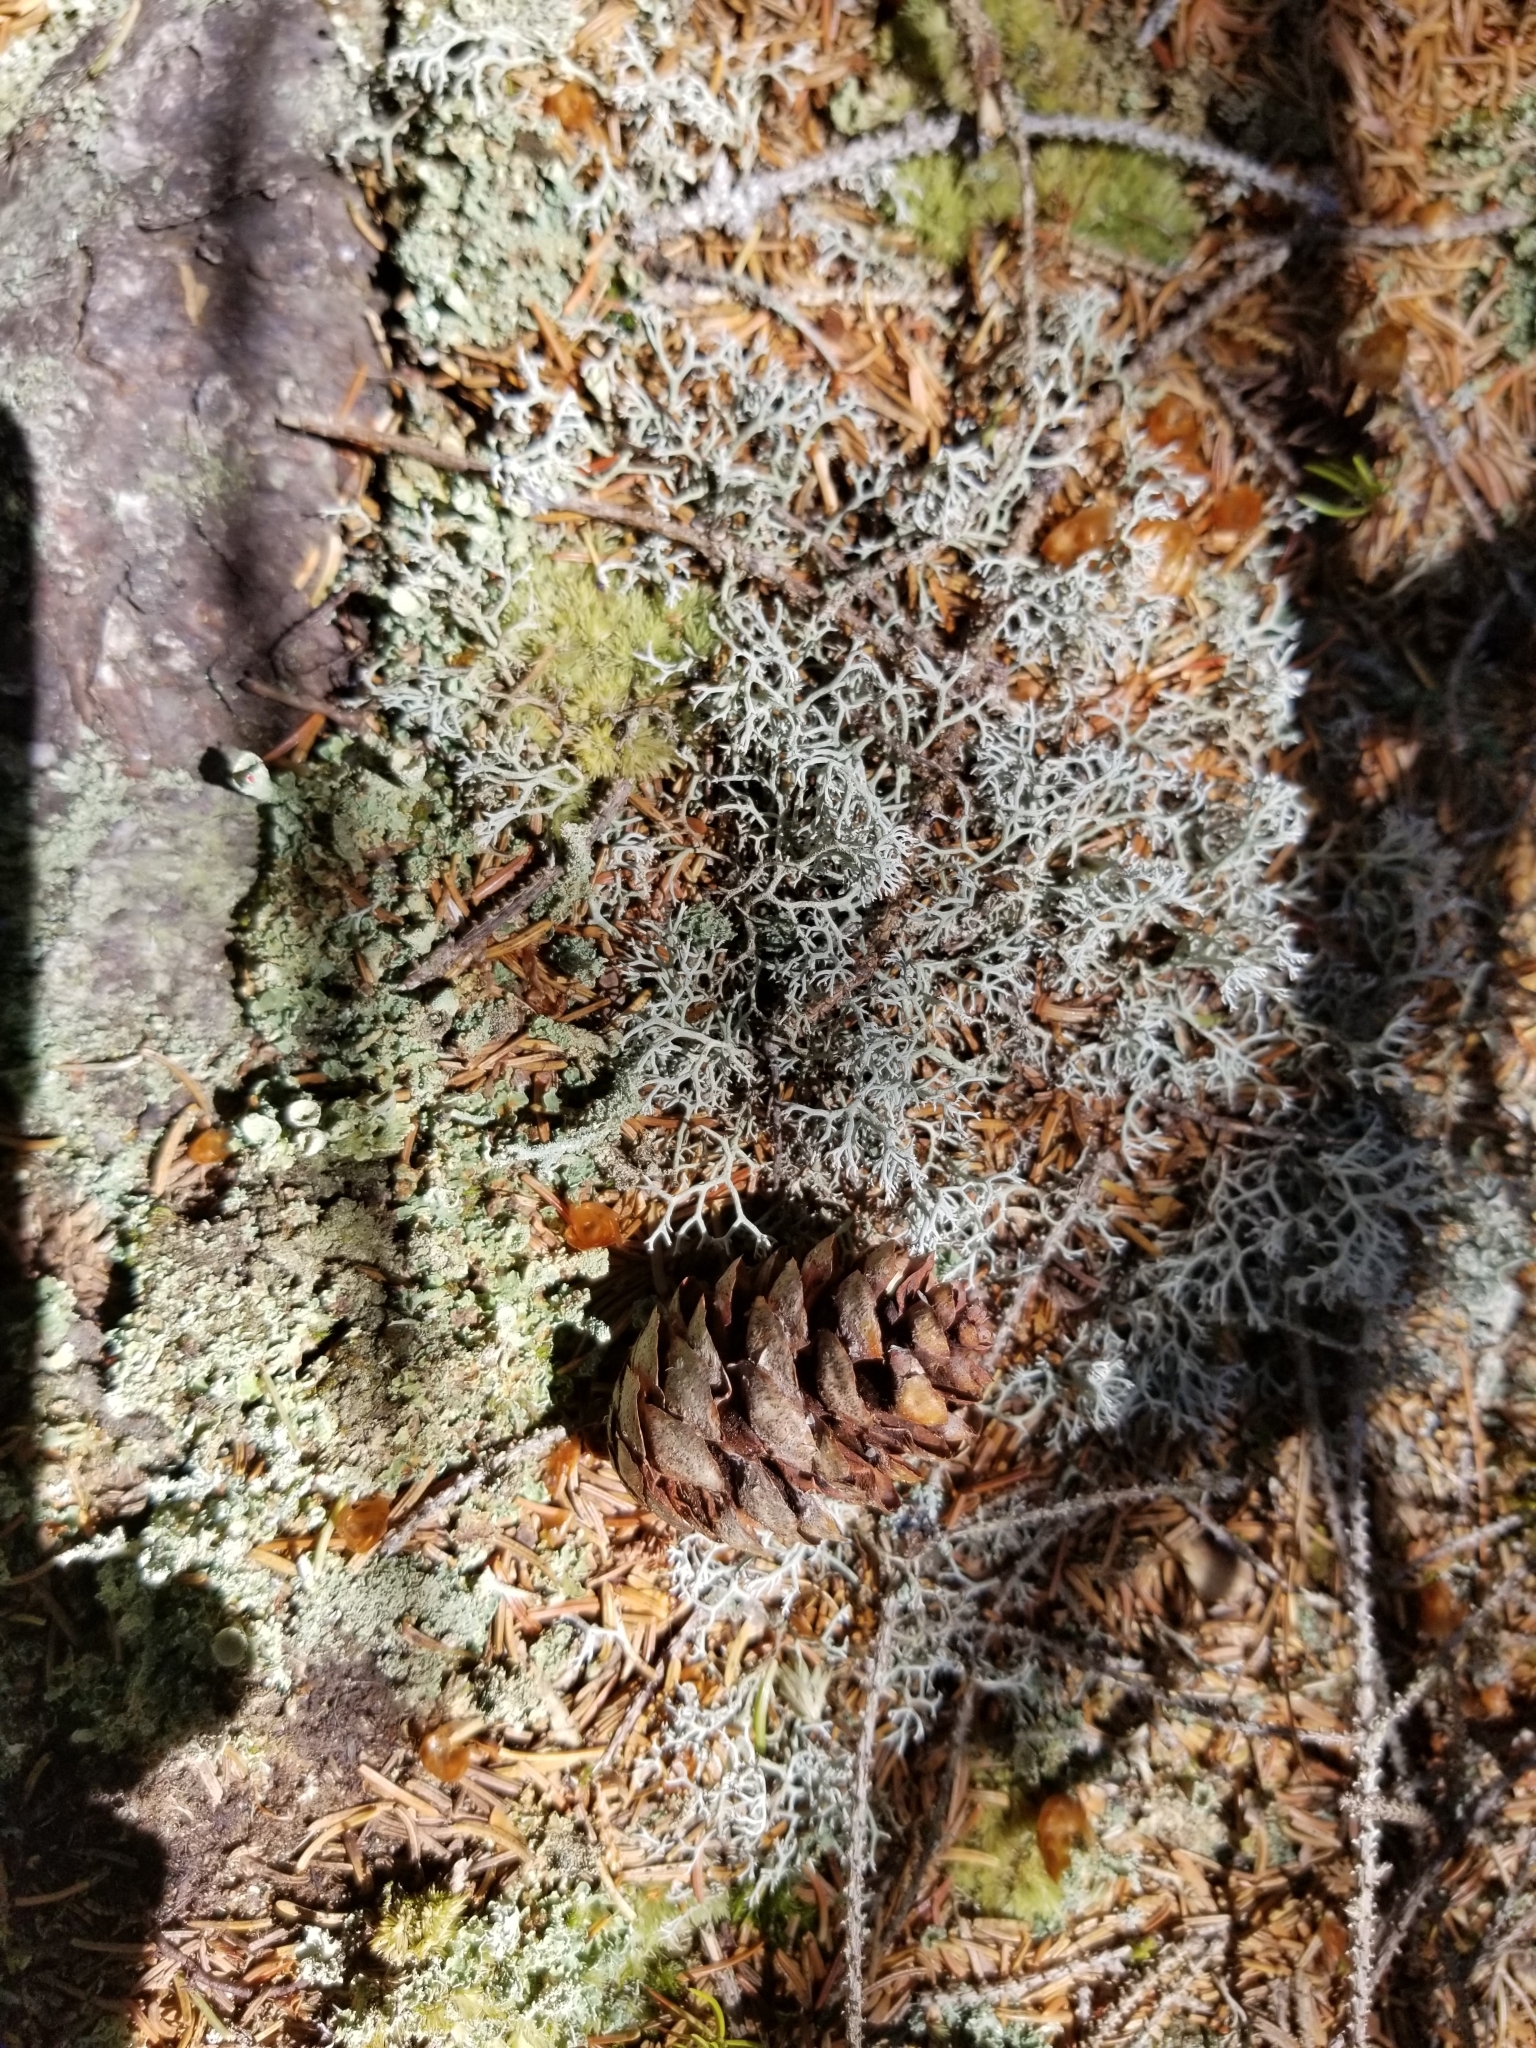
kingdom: Fungi
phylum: Ascomycota
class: Lecanoromycetes
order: Lecanorales
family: Cladoniaceae
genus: Cladonia
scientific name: Cladonia rangiferina
